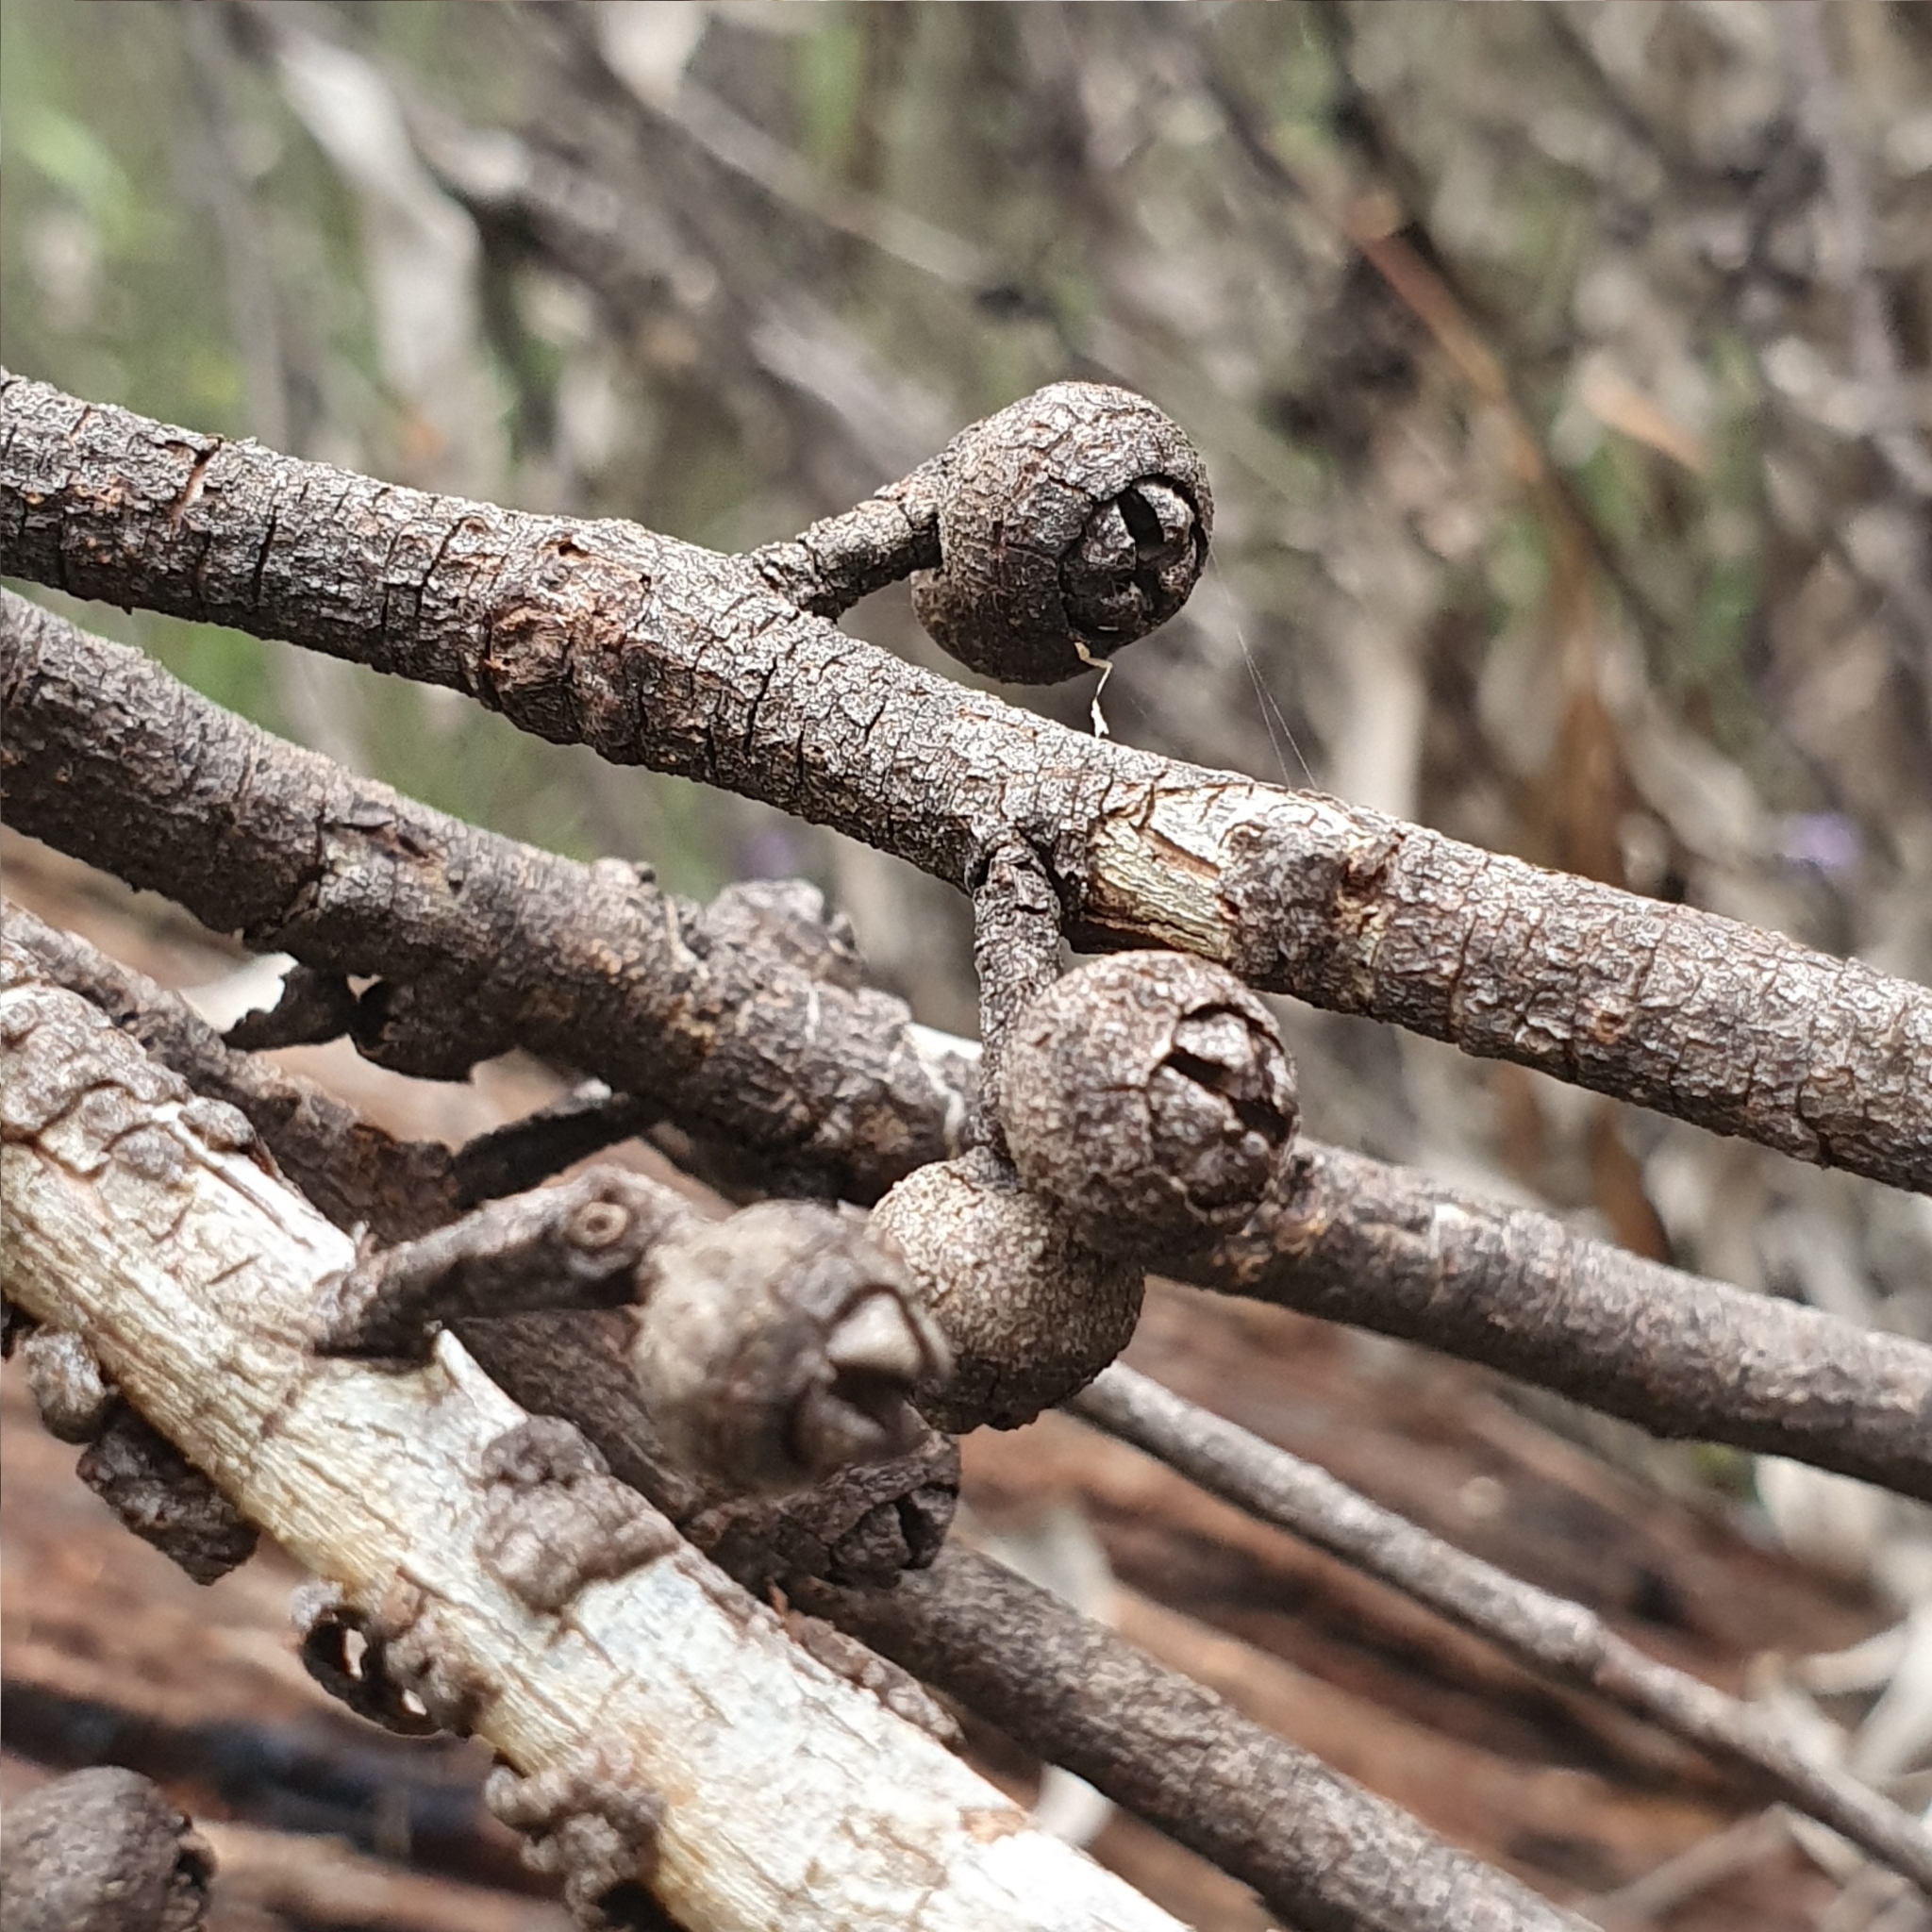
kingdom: Plantae
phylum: Tracheophyta
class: Magnoliopsida
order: Myrtales
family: Myrtaceae
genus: Eucalyptus
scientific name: Eucalyptus blaxlandii
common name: Blaxland's stringybark
